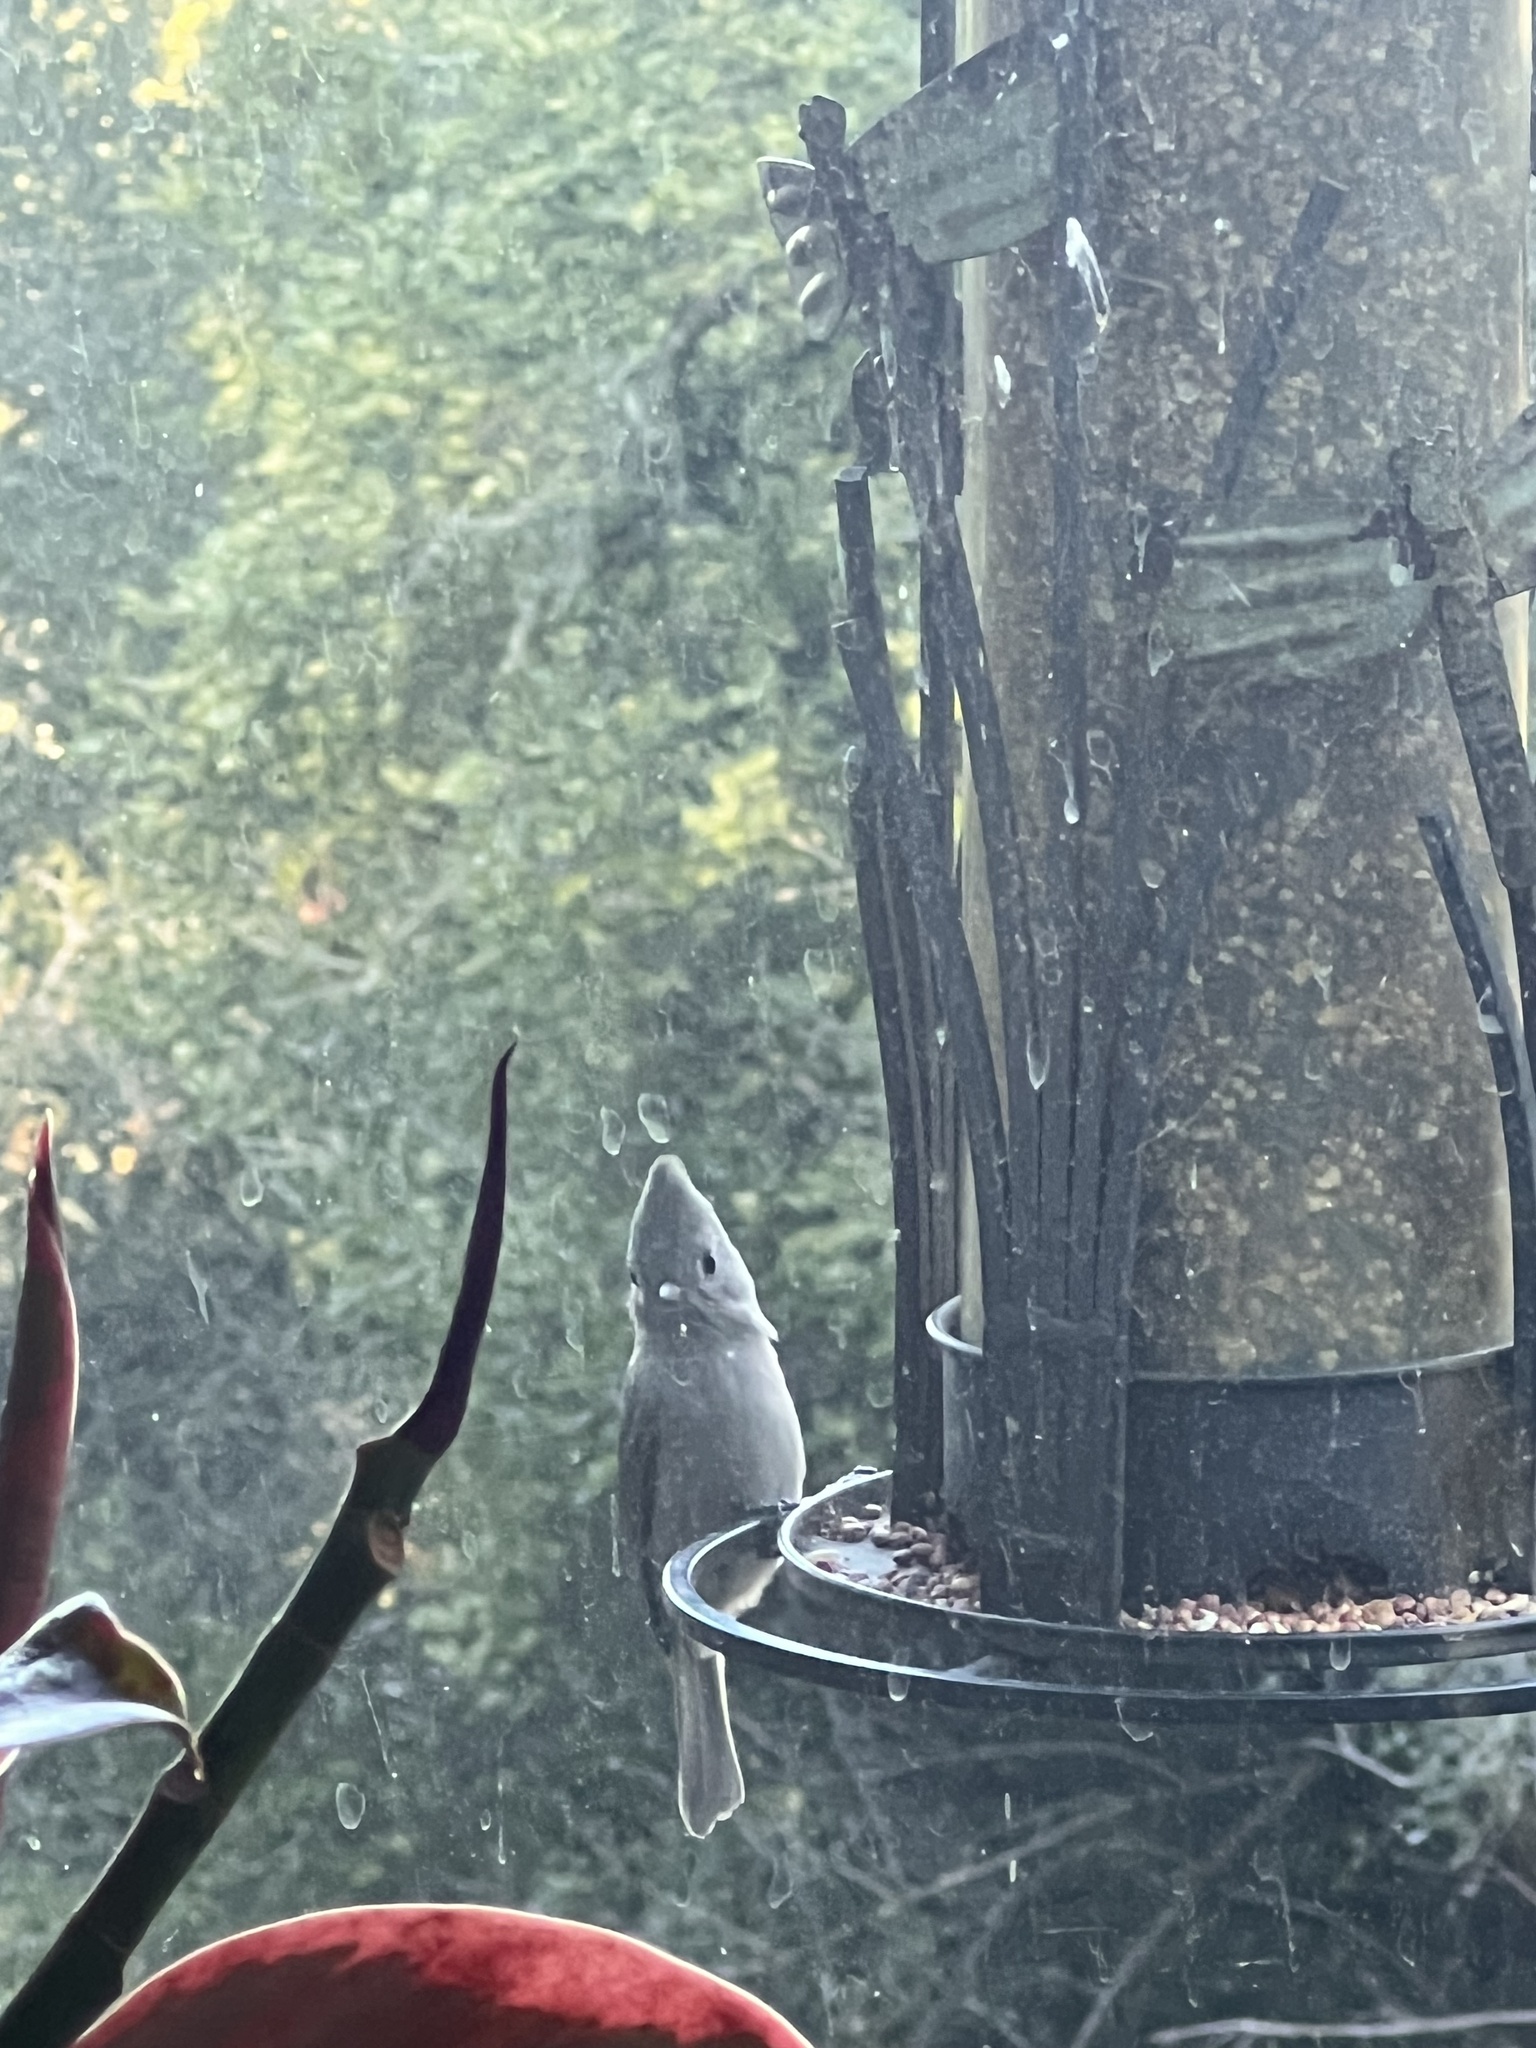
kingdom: Animalia
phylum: Chordata
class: Aves
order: Passeriformes
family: Paridae
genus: Baeolophus
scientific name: Baeolophus inornatus
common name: Oak titmouse
